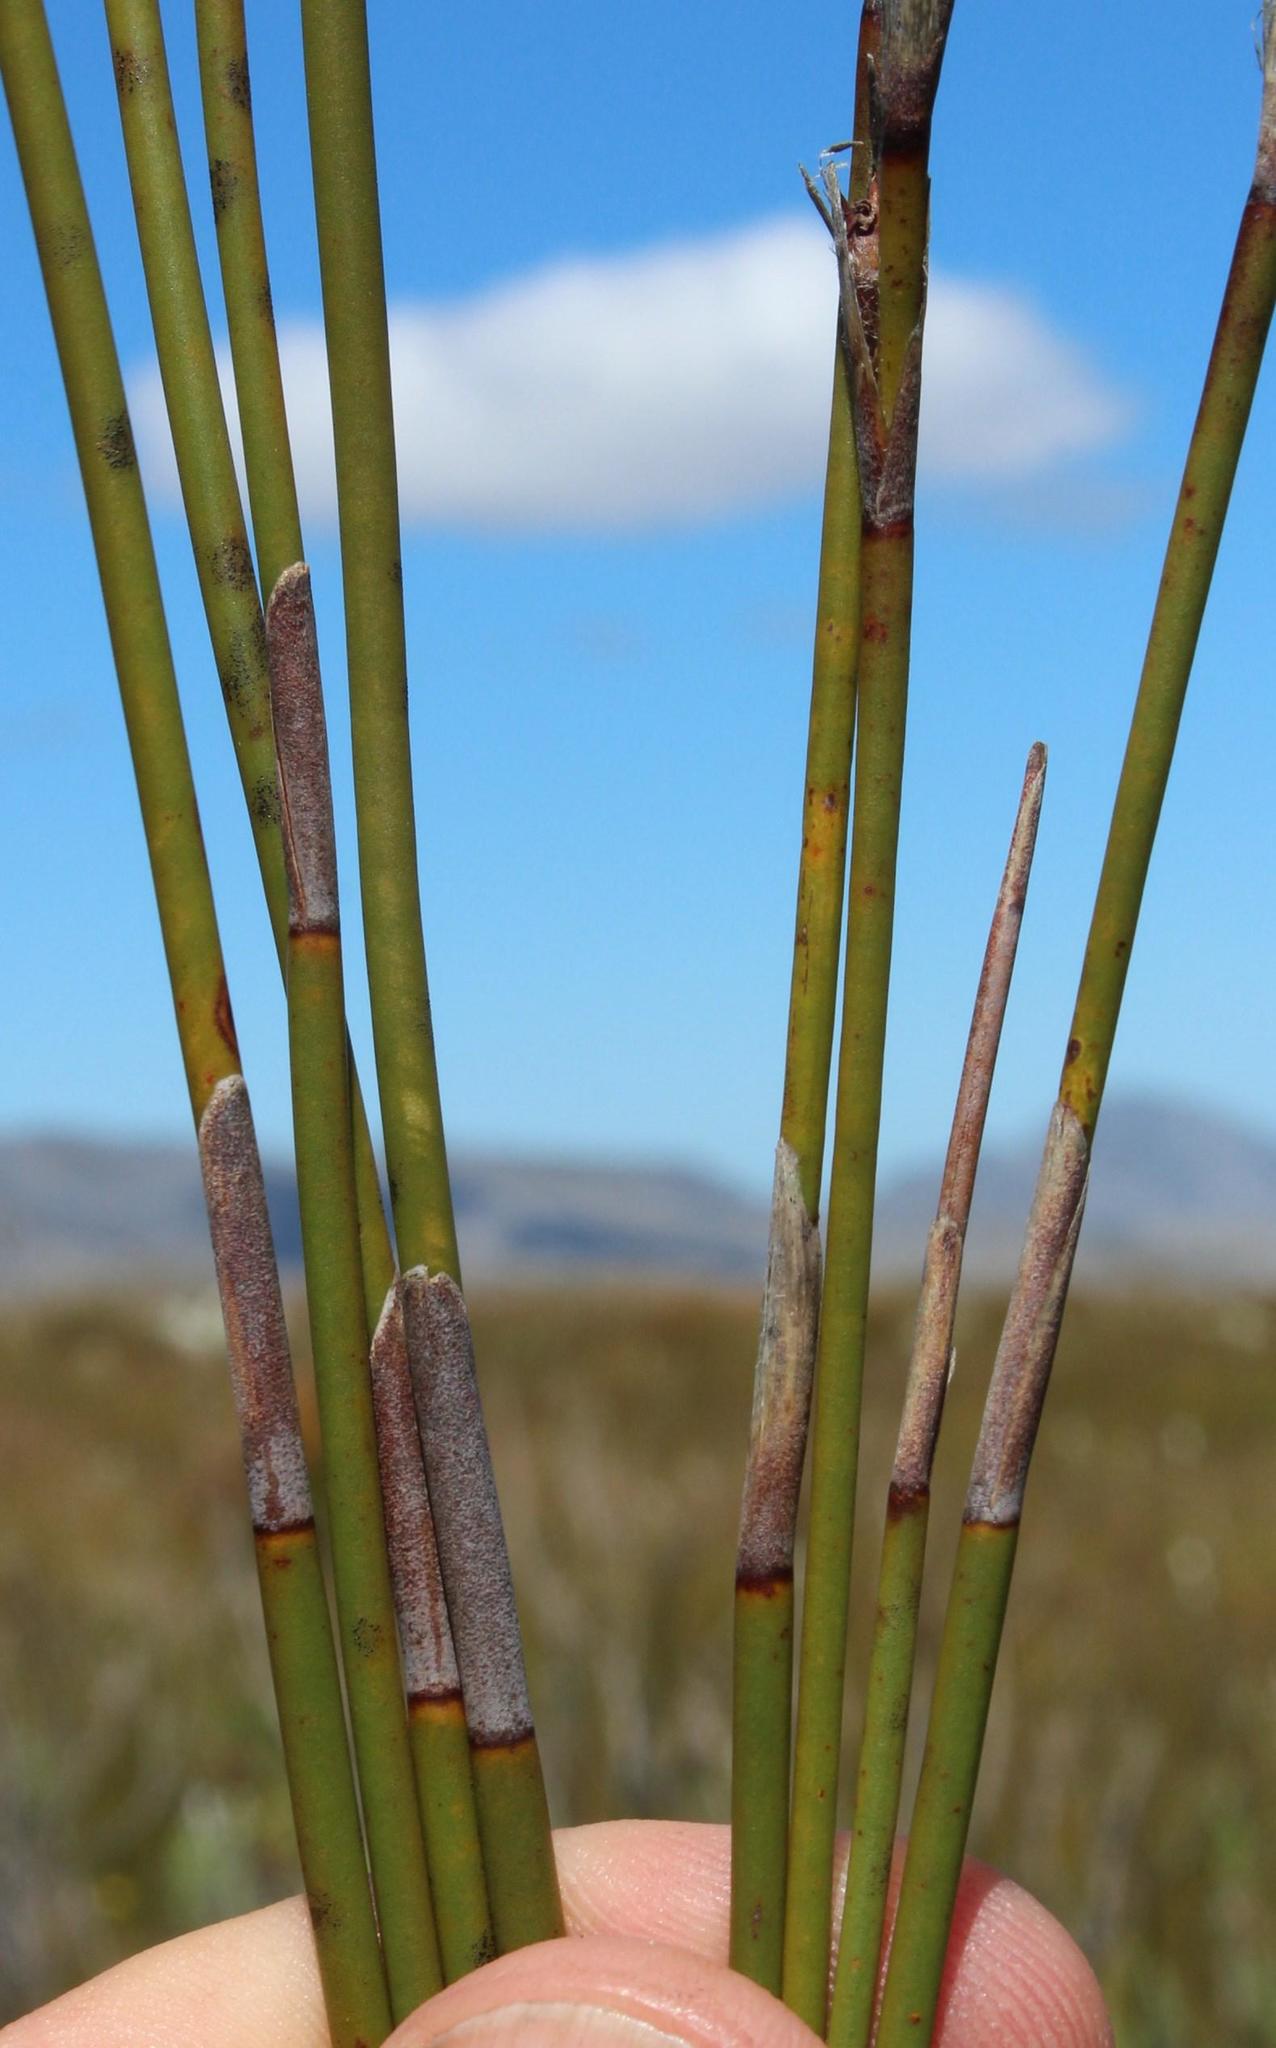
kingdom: Plantae
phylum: Tracheophyta
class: Liliopsida
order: Poales
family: Restionaceae
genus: Nevillea
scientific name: Nevillea obtusissimus
